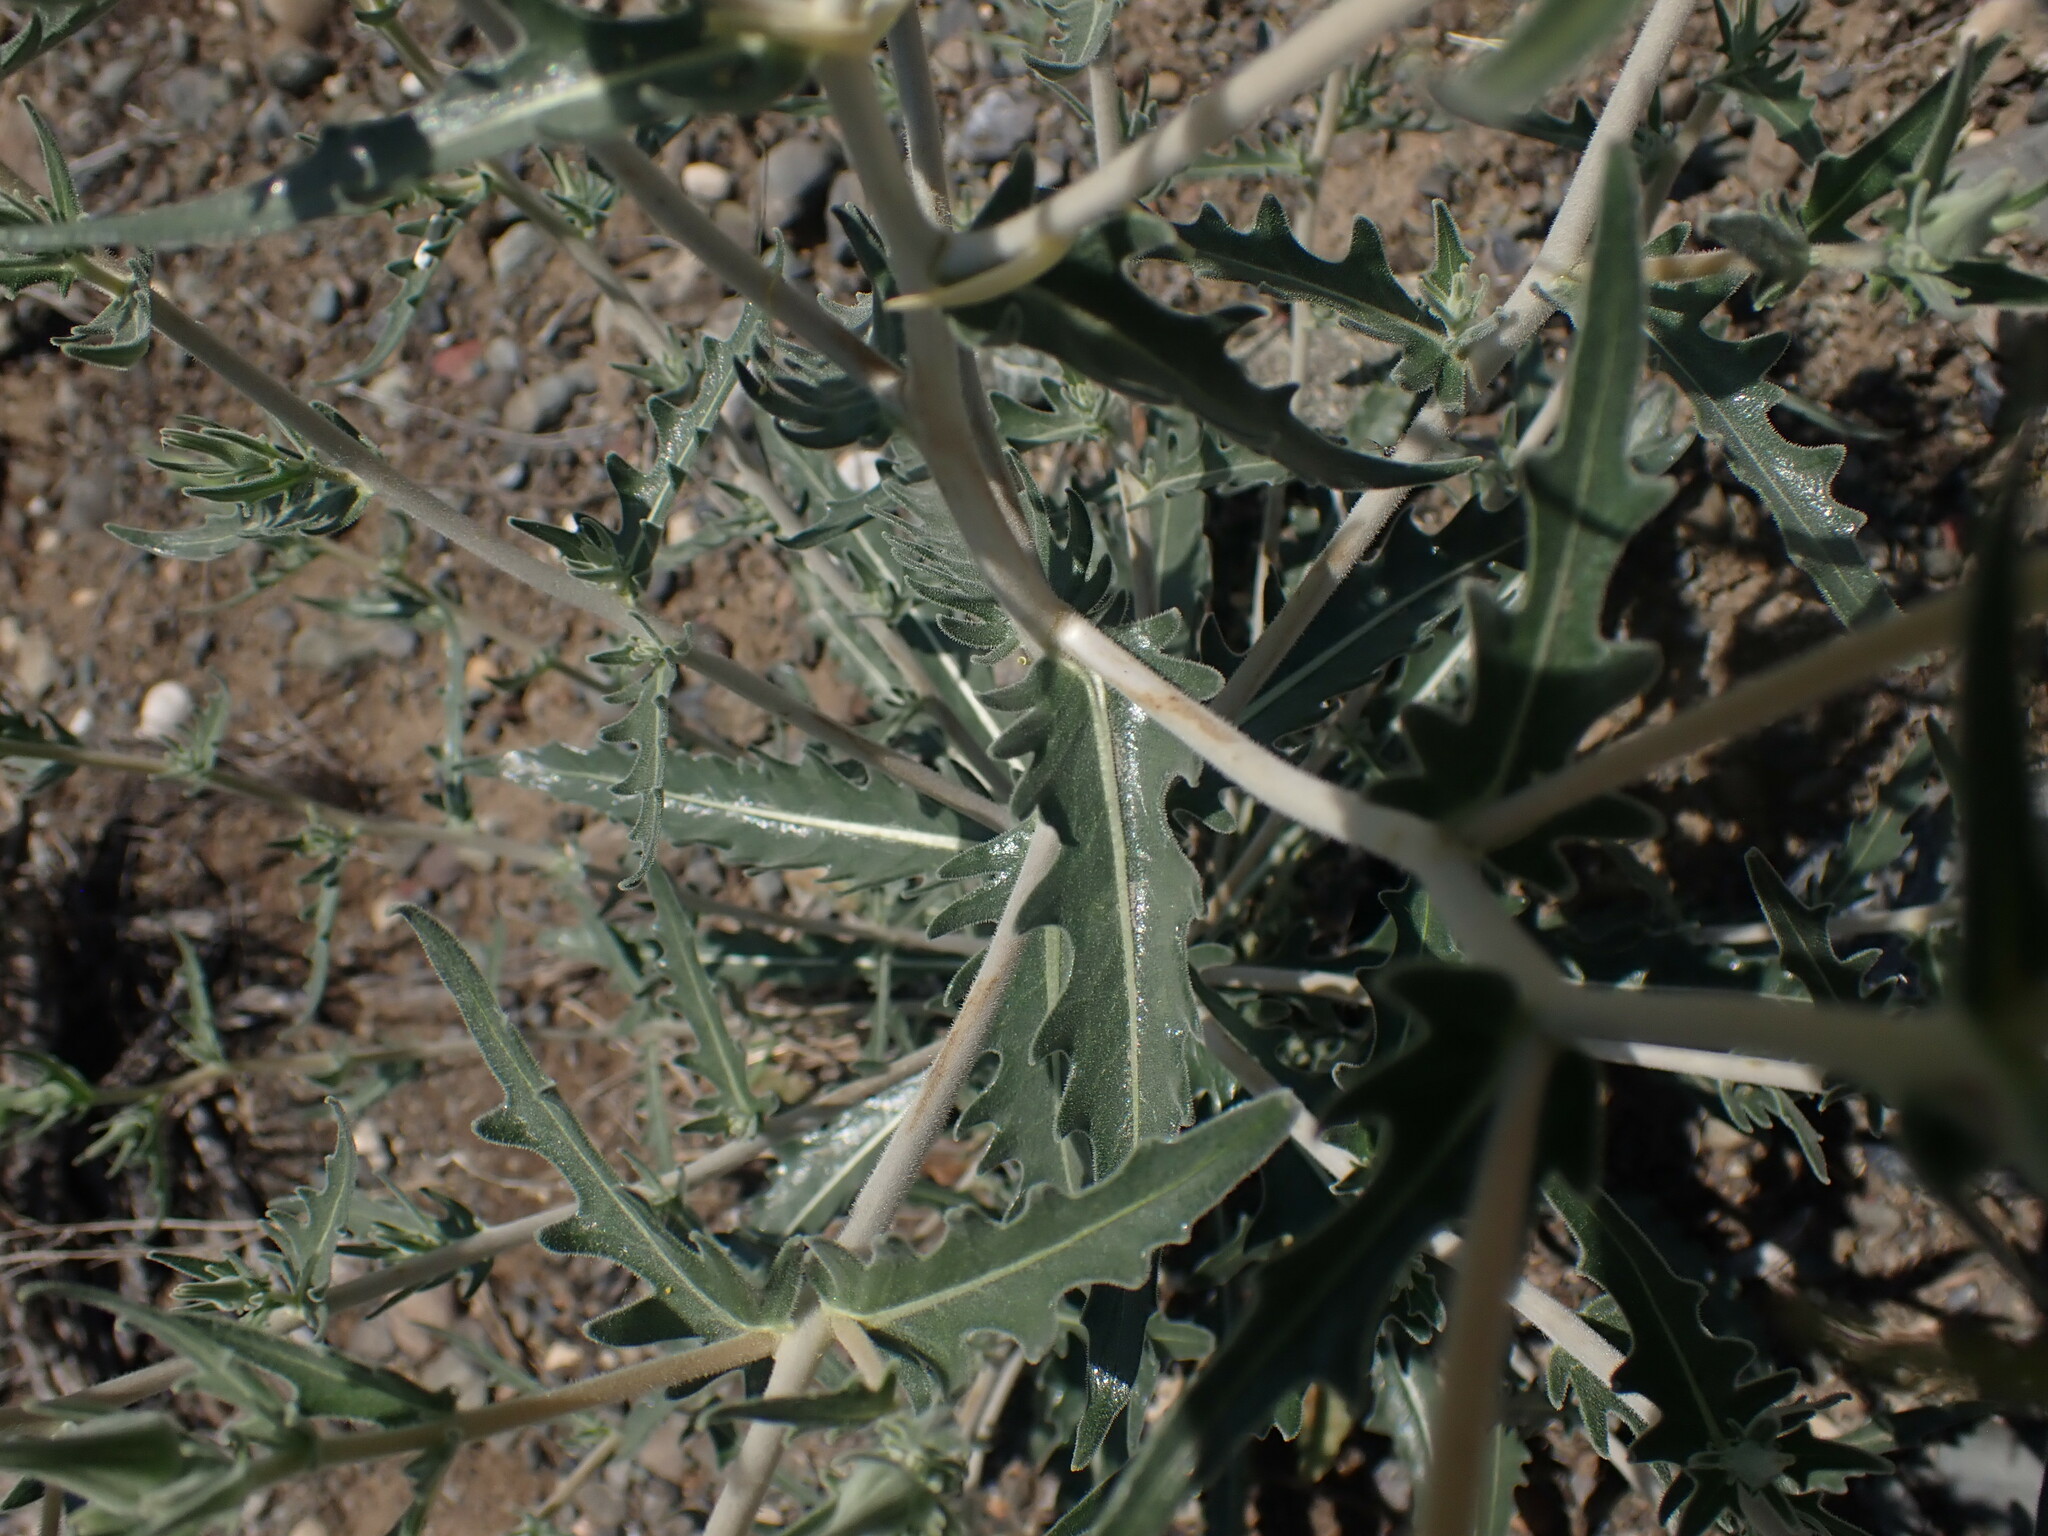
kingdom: Plantae
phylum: Tracheophyta
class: Magnoliopsida
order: Cornales
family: Loasaceae
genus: Mentzelia
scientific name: Mentzelia laevicaulis
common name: Smooth-stem blazingstar
